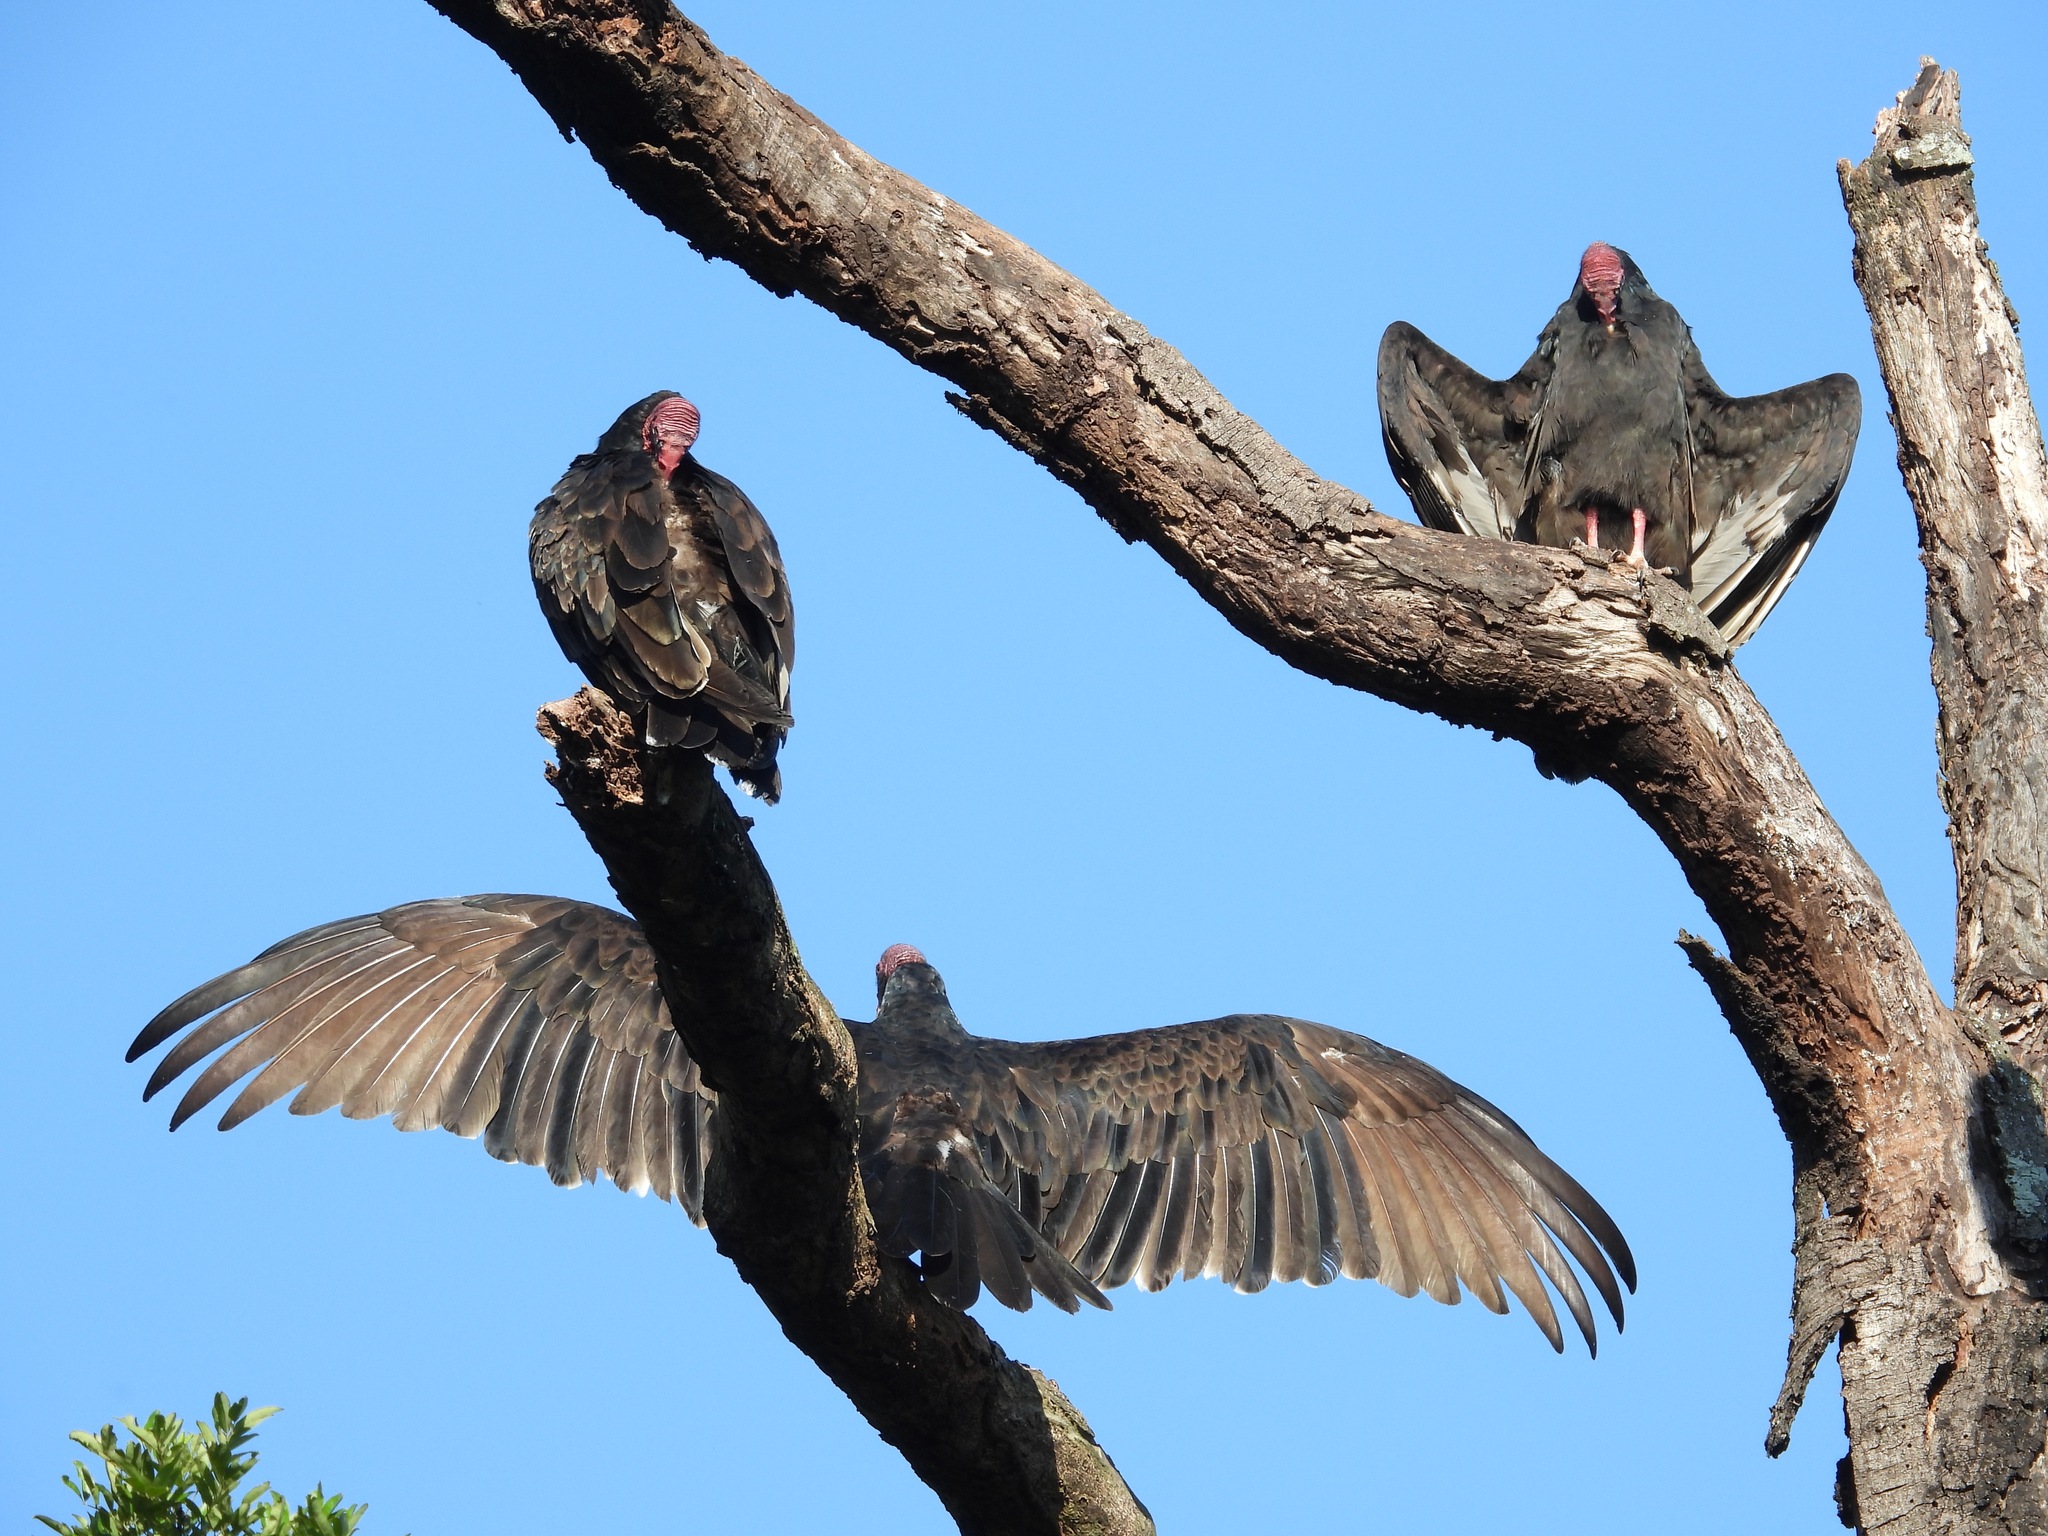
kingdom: Animalia
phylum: Chordata
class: Aves
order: Accipitriformes
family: Cathartidae
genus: Cathartes
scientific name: Cathartes aura
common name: Turkey vulture
